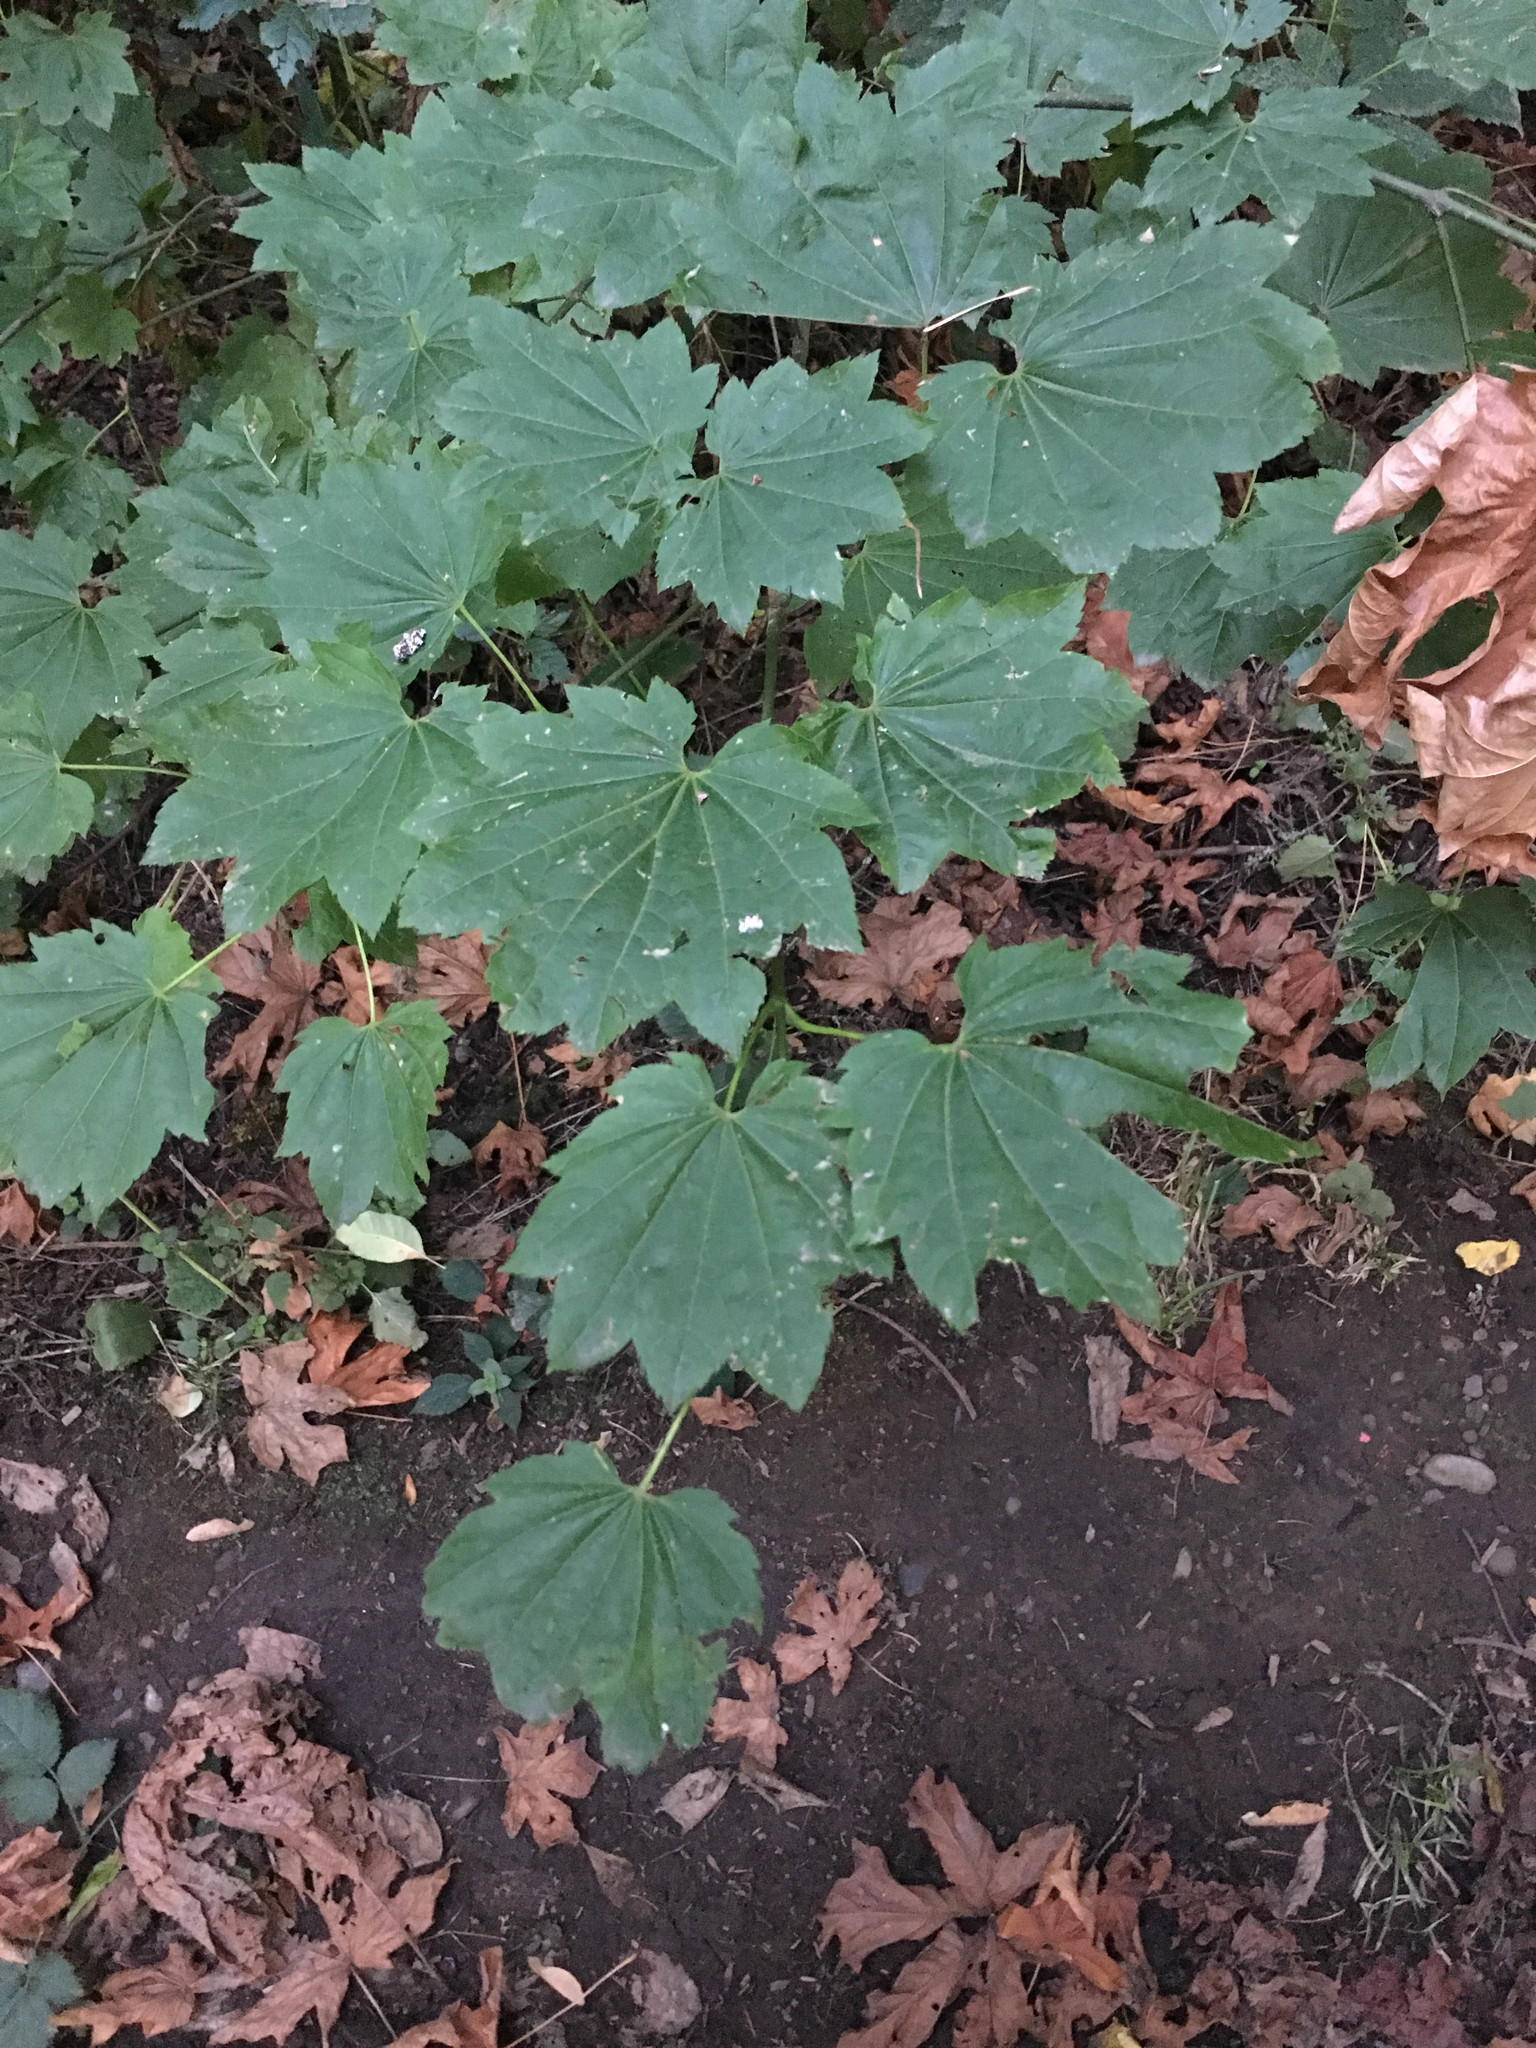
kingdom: Plantae
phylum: Tracheophyta
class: Magnoliopsida
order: Sapindales
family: Sapindaceae
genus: Acer
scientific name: Acer circinatum
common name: Vine maple
